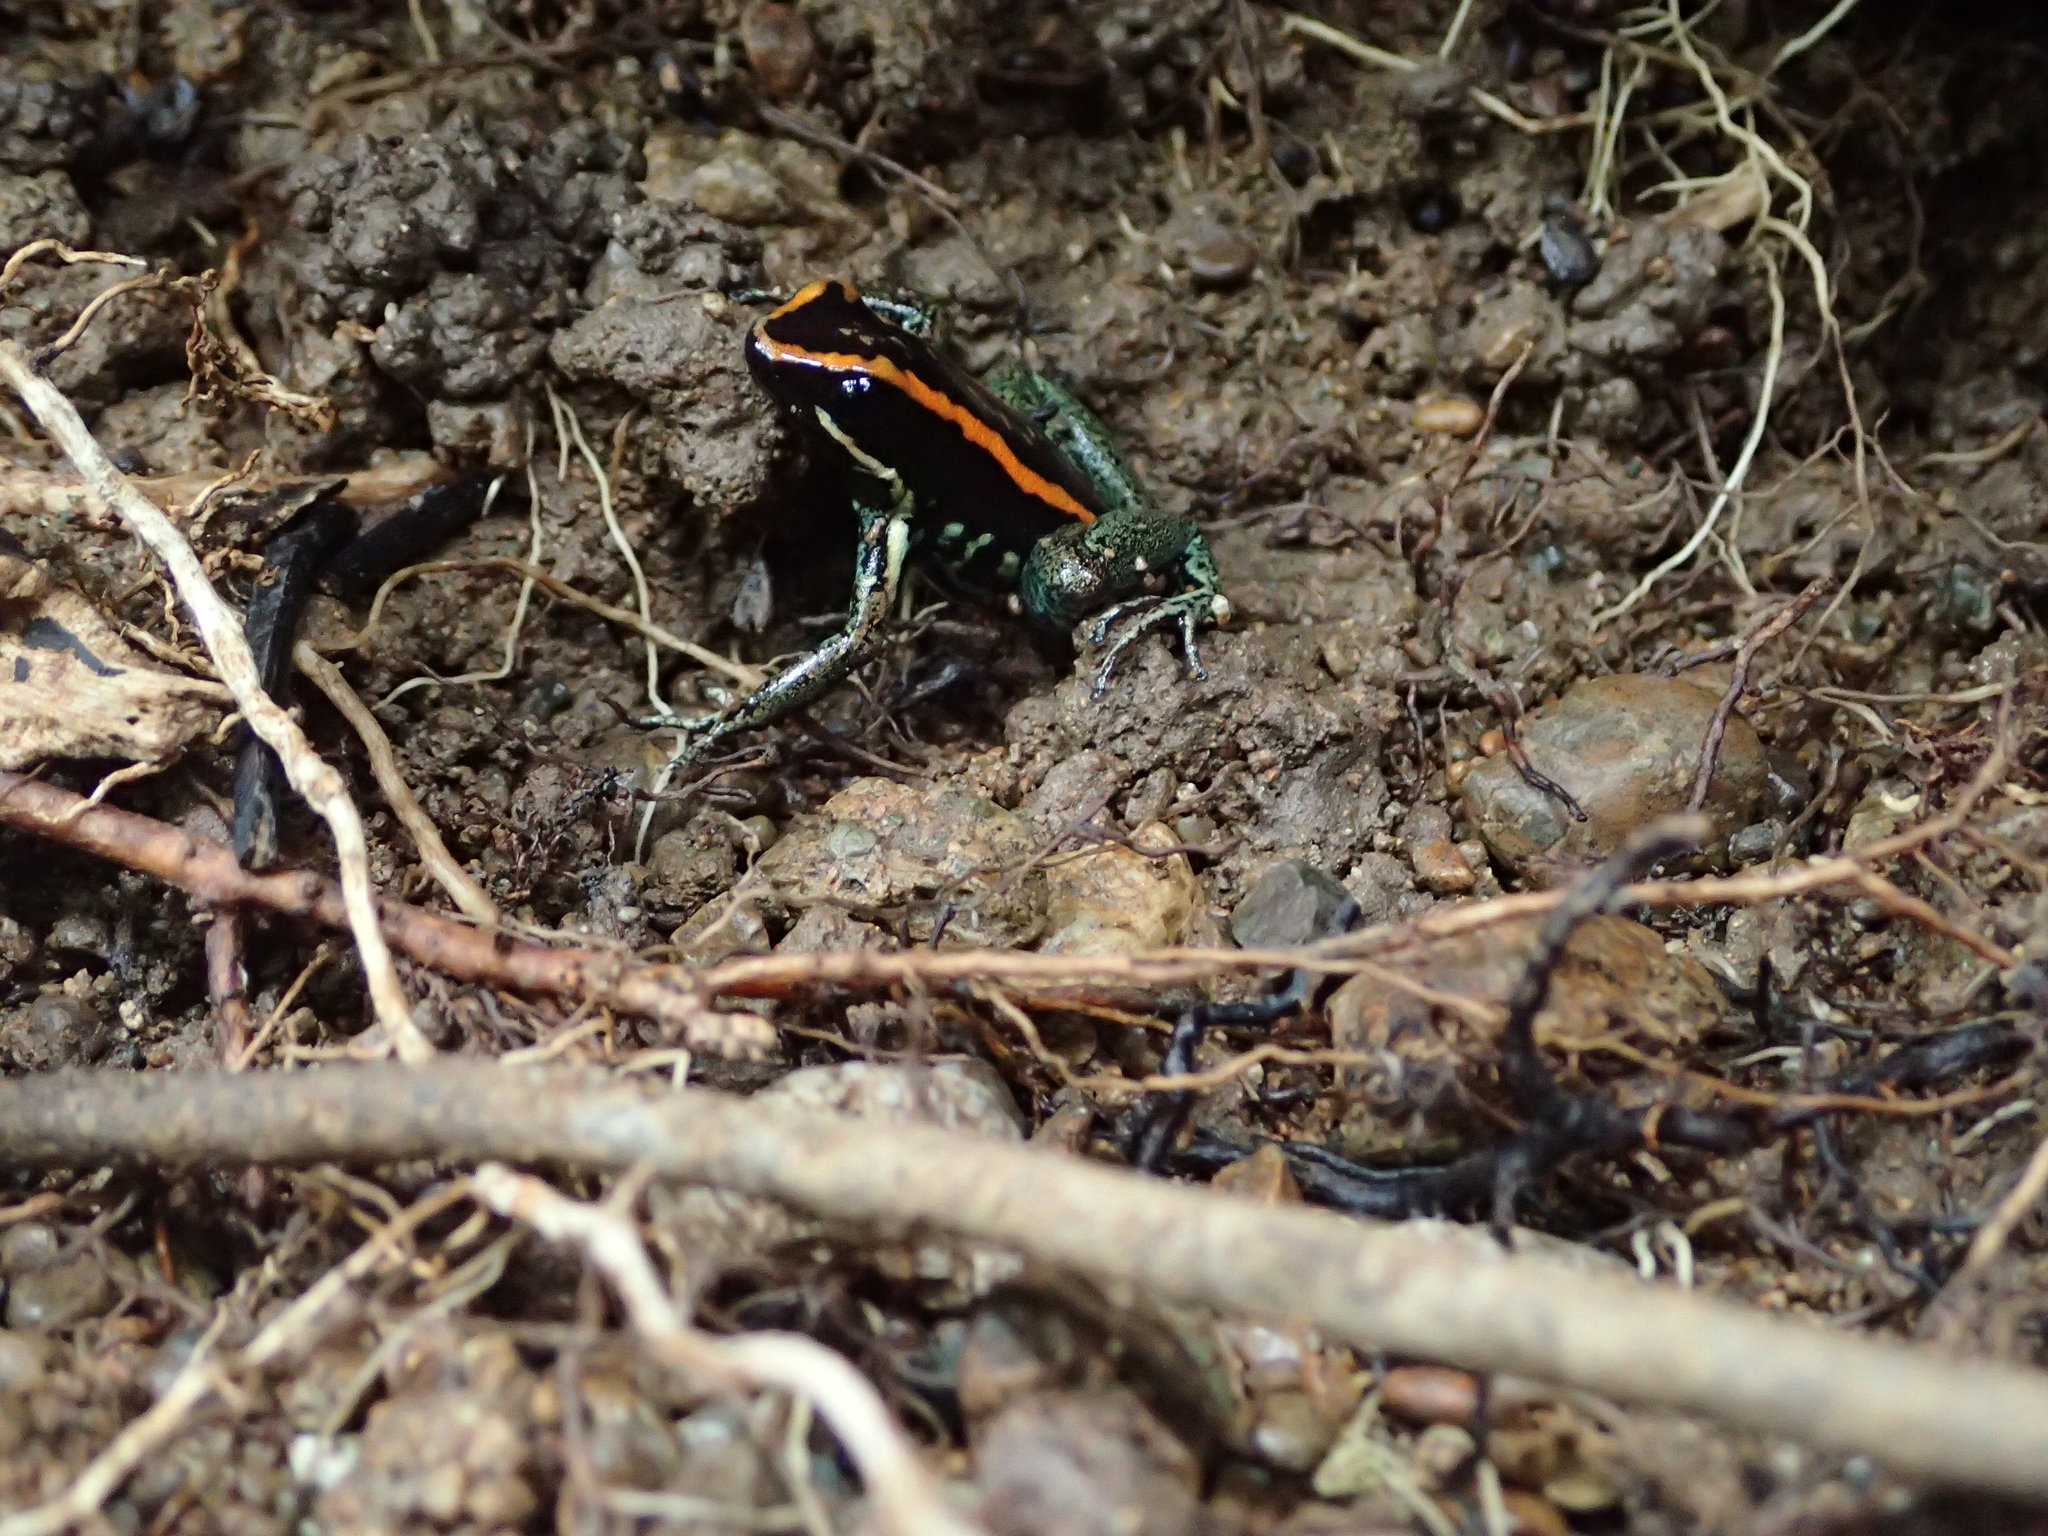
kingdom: Animalia
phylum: Chordata
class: Amphibia
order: Anura
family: Dendrobatidae
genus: Phyllobates
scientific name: Phyllobates vittatus
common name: Golfodulcean poison frog
